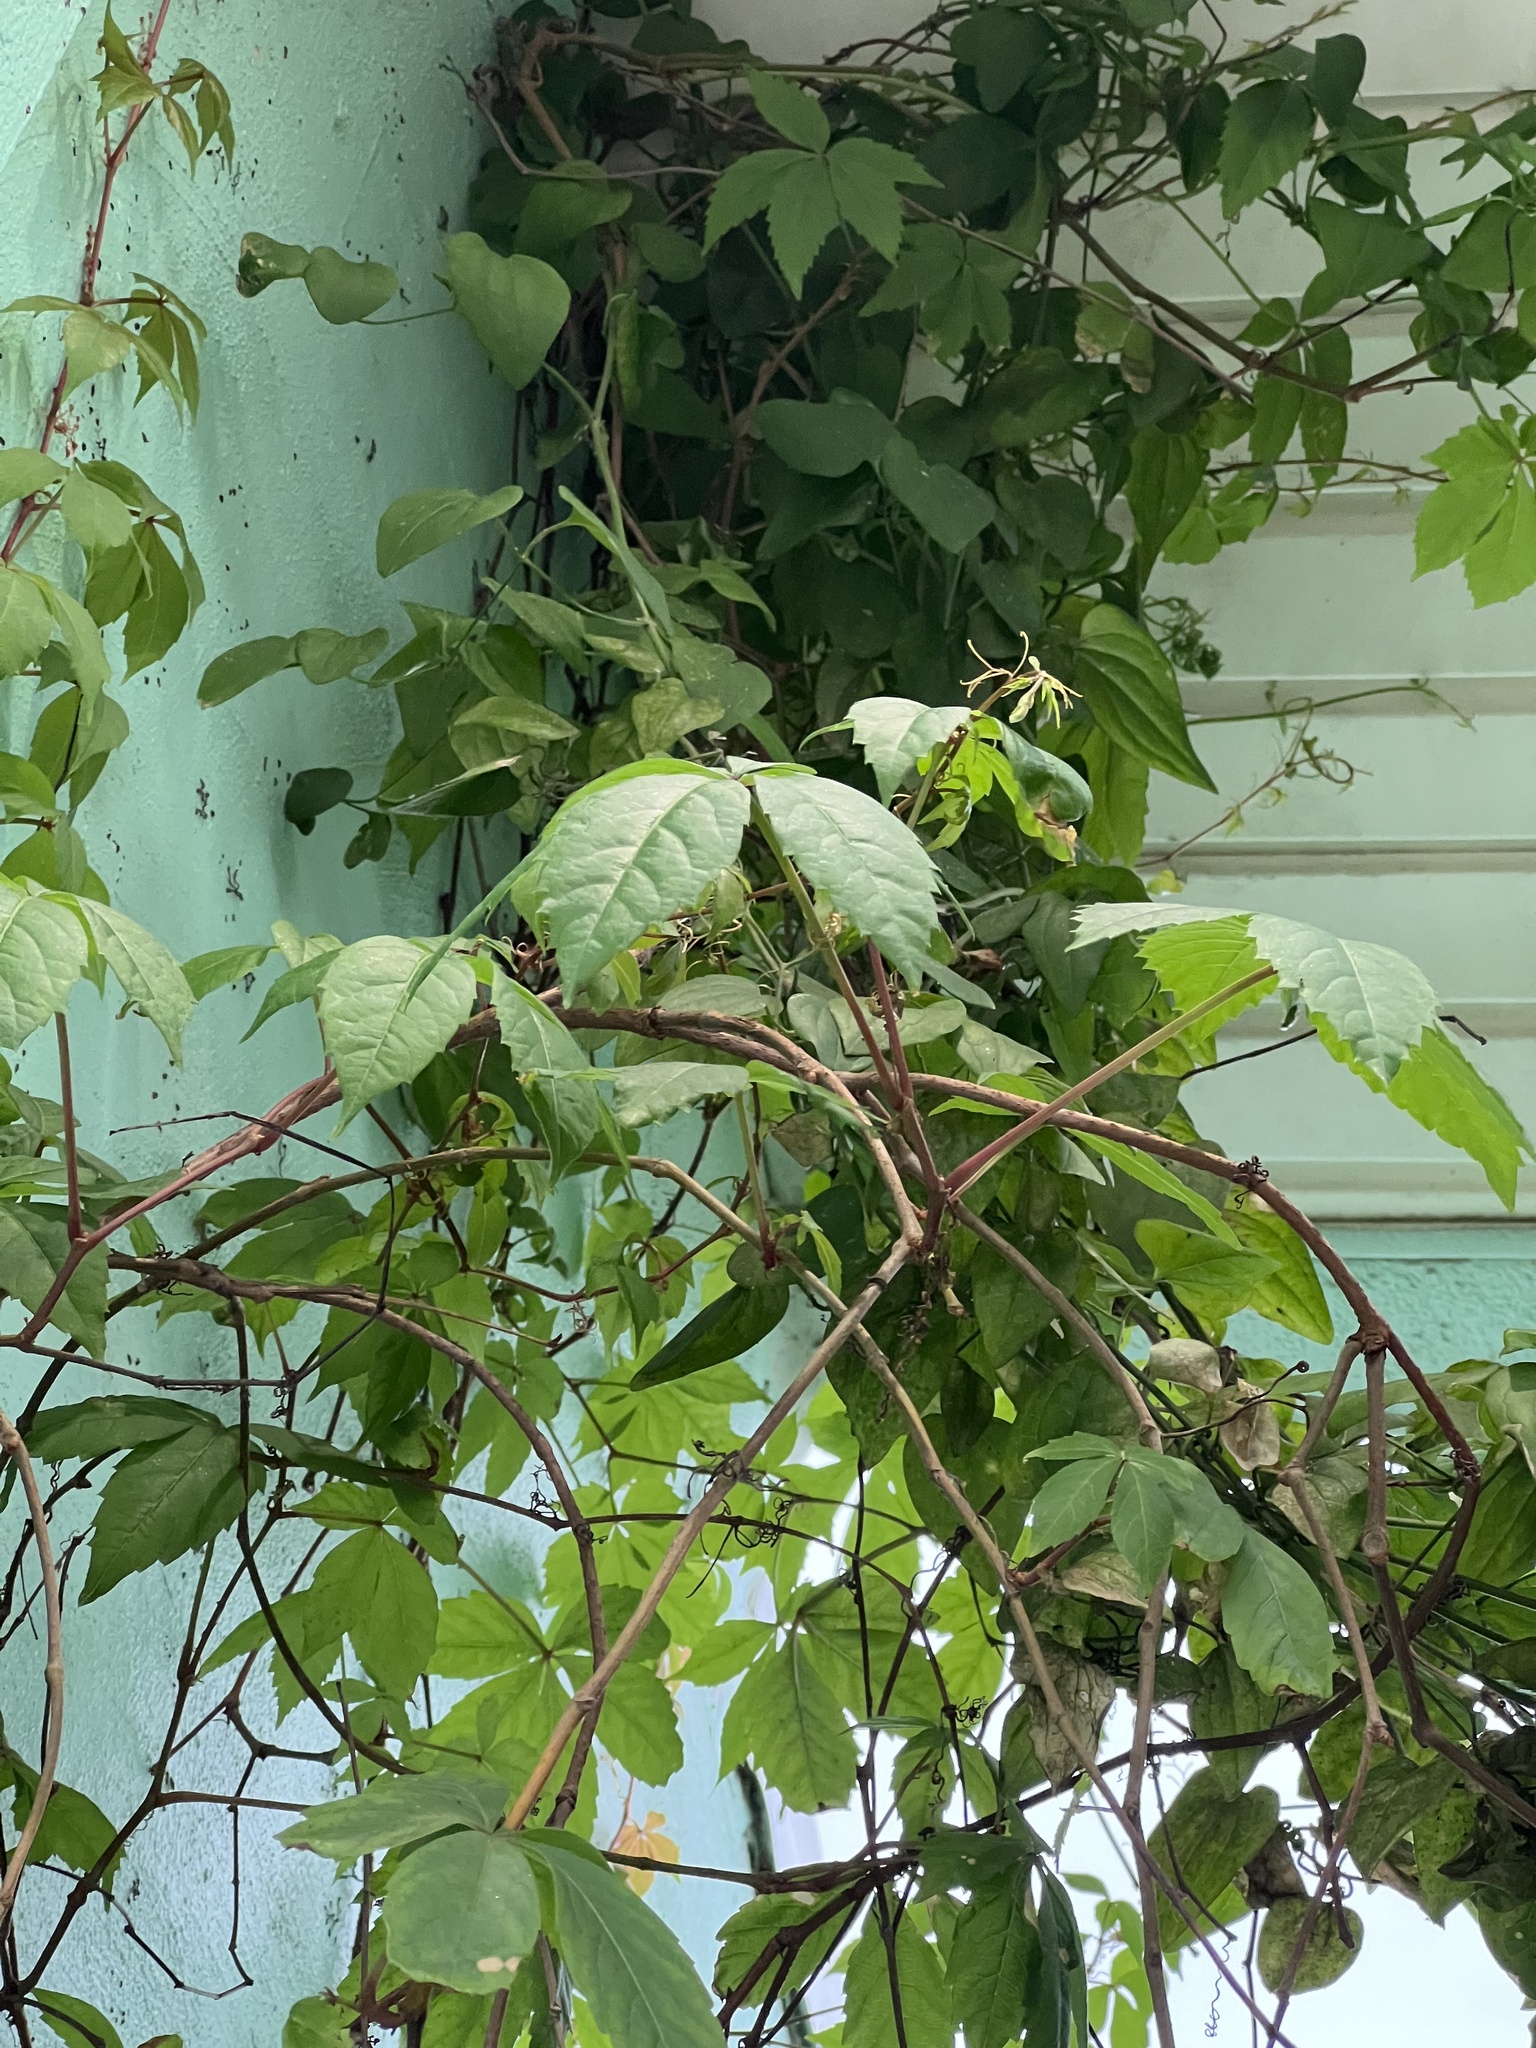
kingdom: Plantae
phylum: Tracheophyta
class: Magnoliopsida
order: Vitales
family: Vitaceae
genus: Parthenocissus
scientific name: Parthenocissus quinquefolia
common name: Virginia-creeper
